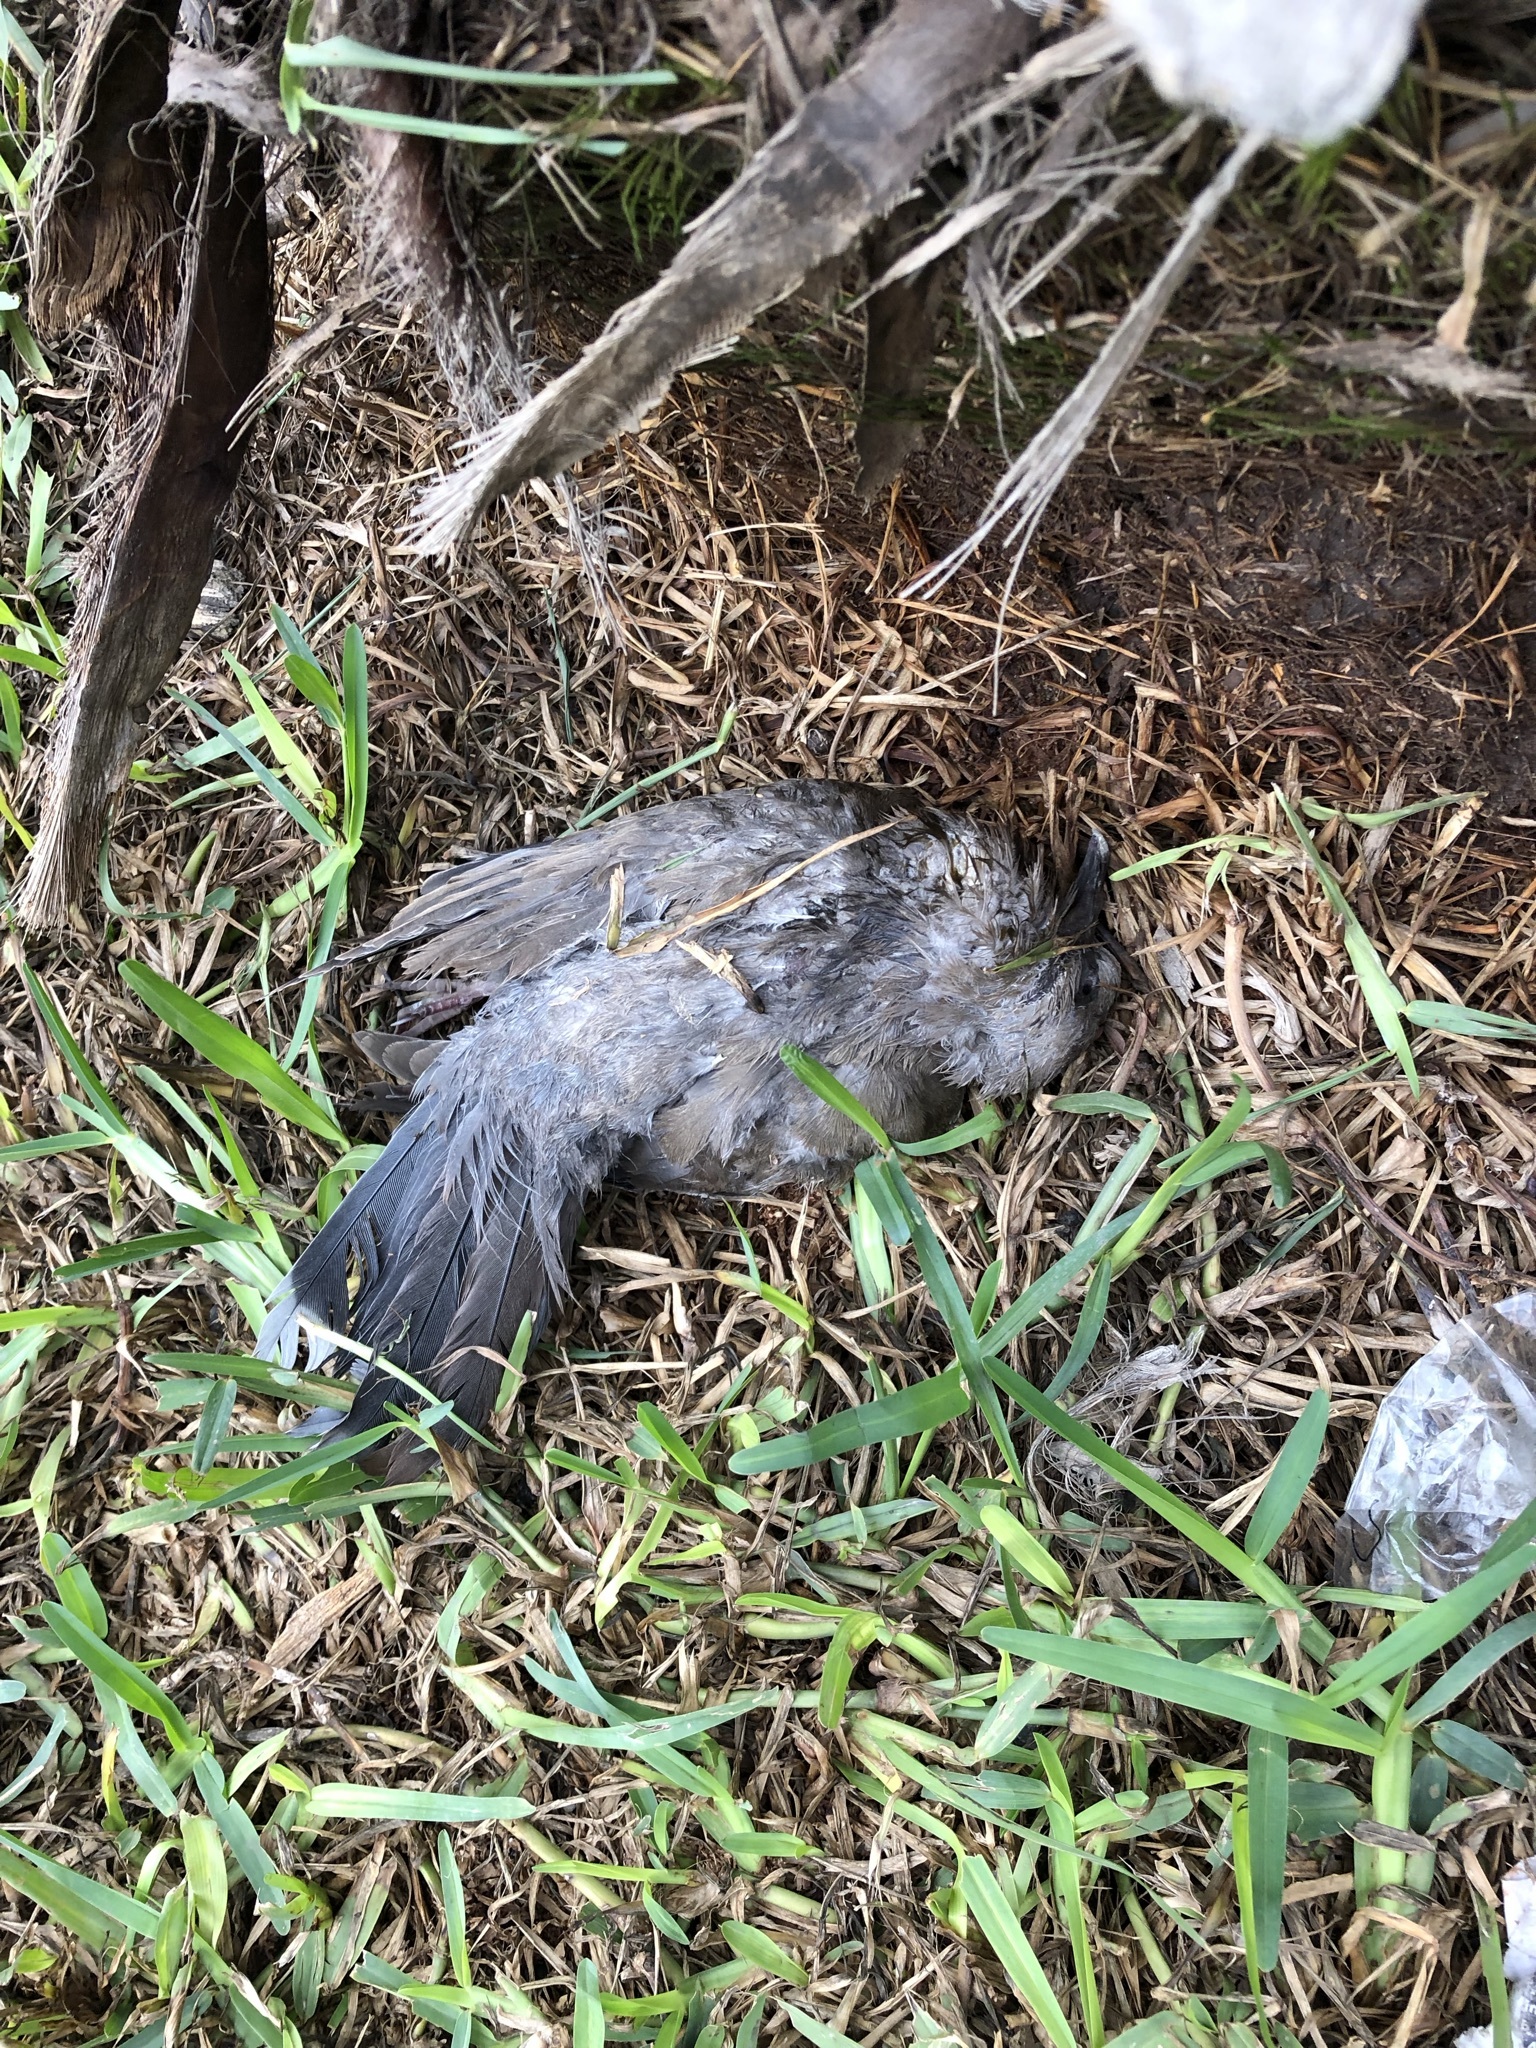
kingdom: Animalia
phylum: Chordata
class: Aves
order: Columbiformes
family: Columbidae
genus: Zenaida
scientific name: Zenaida meloda
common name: West peruvian dove
